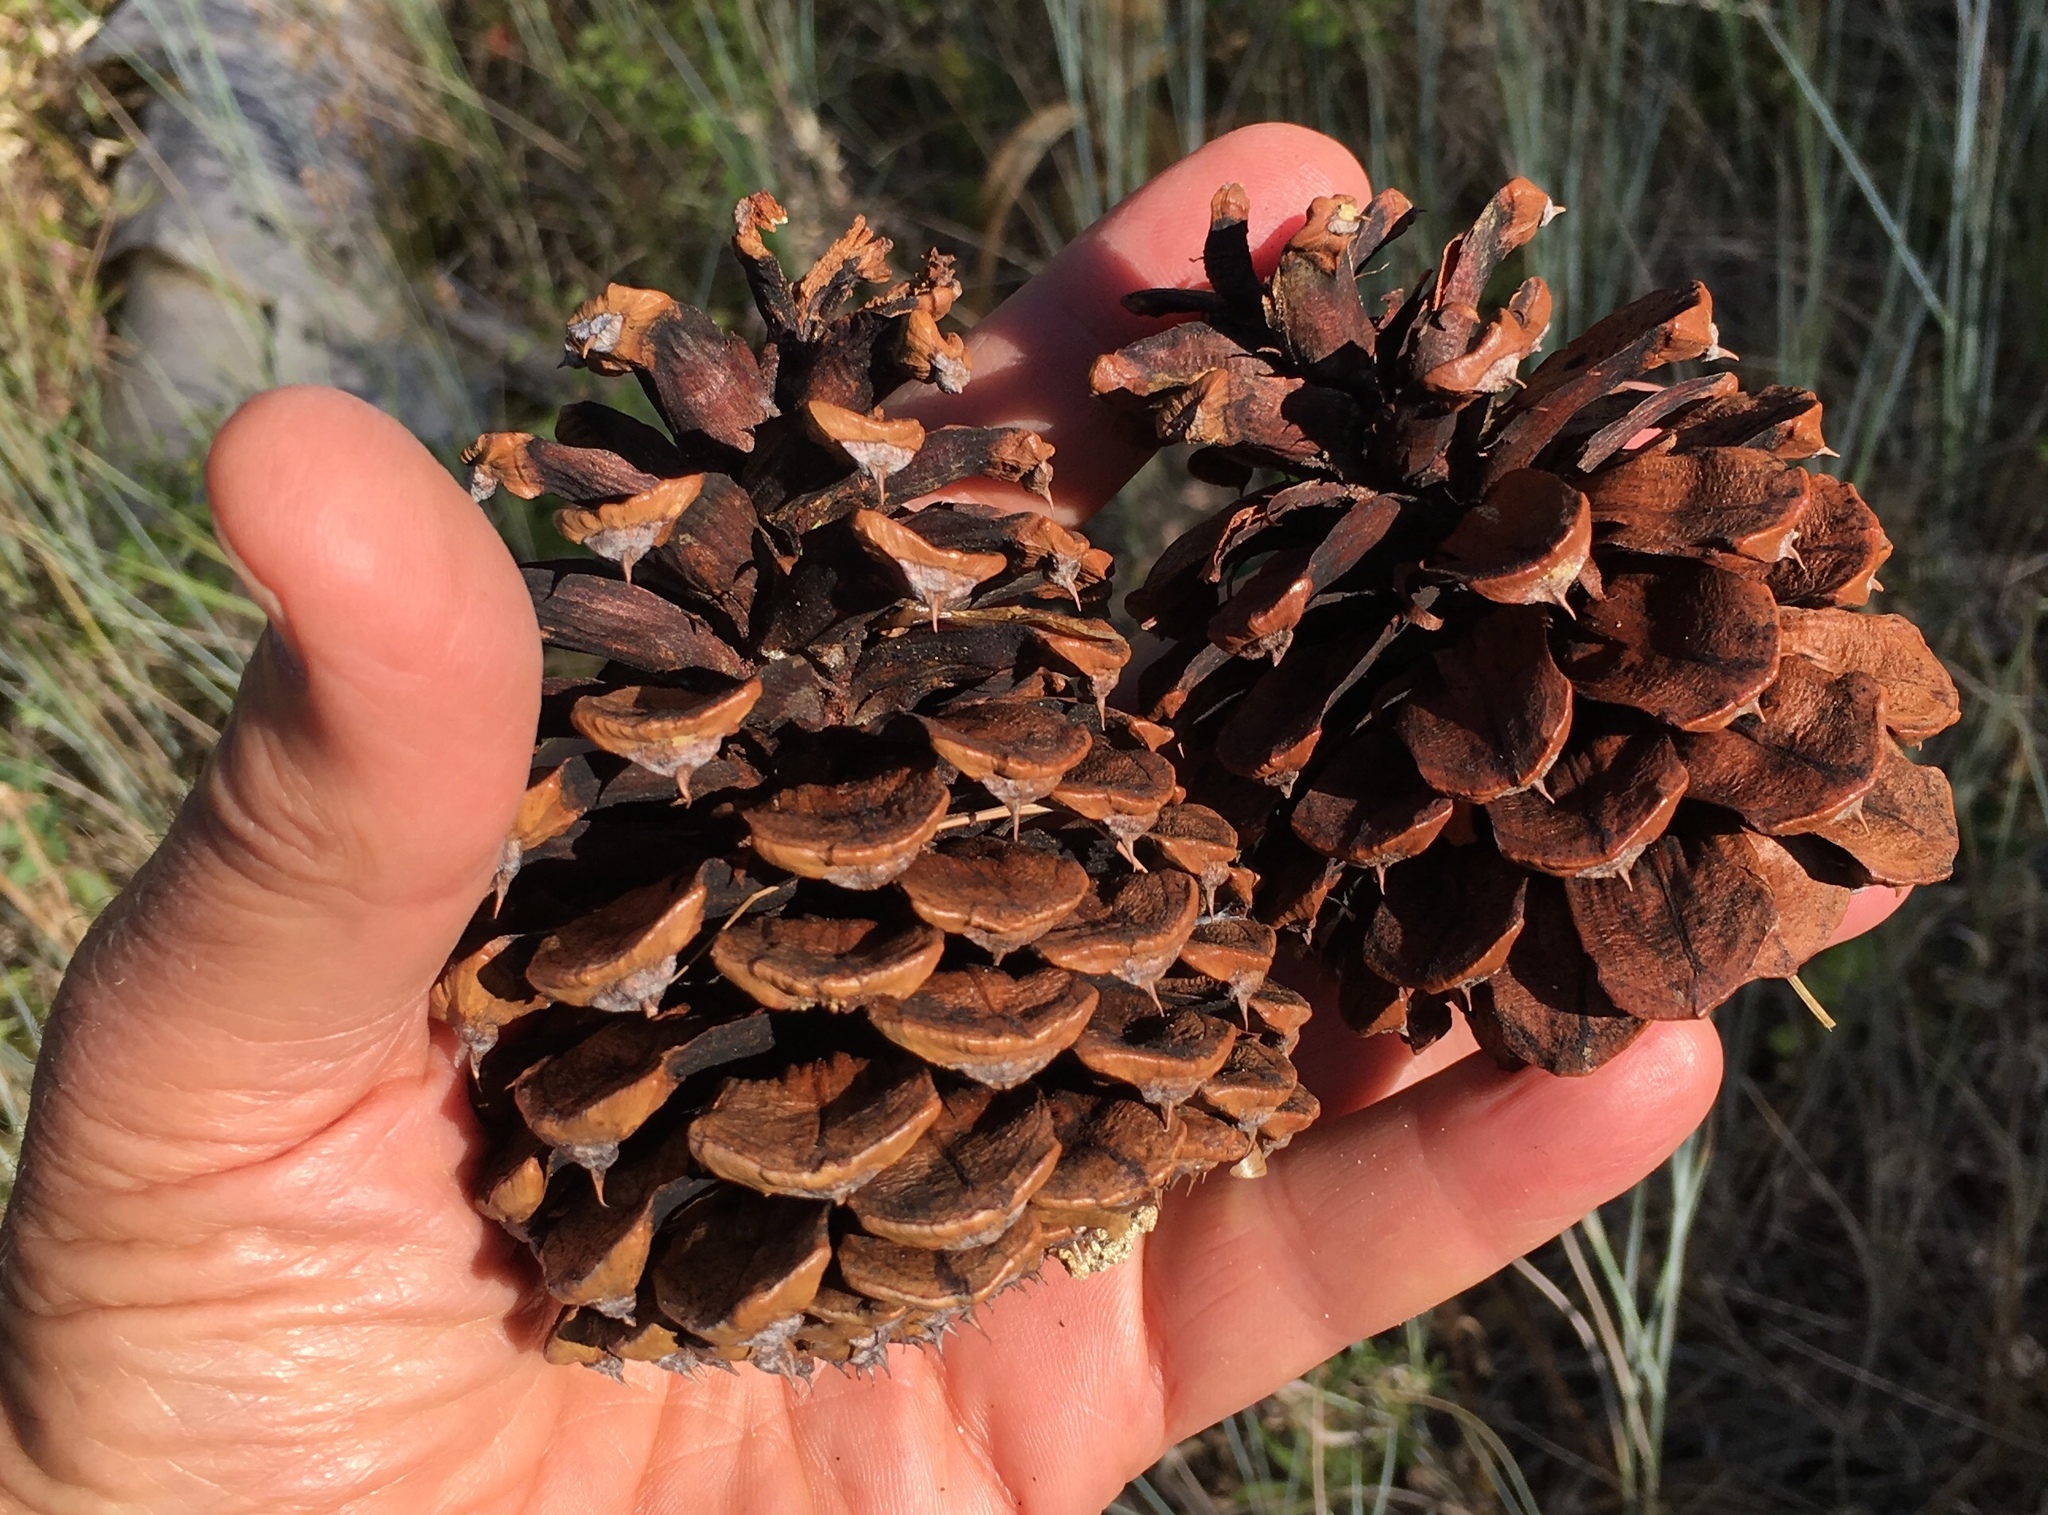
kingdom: Plantae
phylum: Tracheophyta
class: Pinopsida
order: Pinales
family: Pinaceae
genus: Pinus
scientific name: Pinus ponderosa
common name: Western yellow-pine
